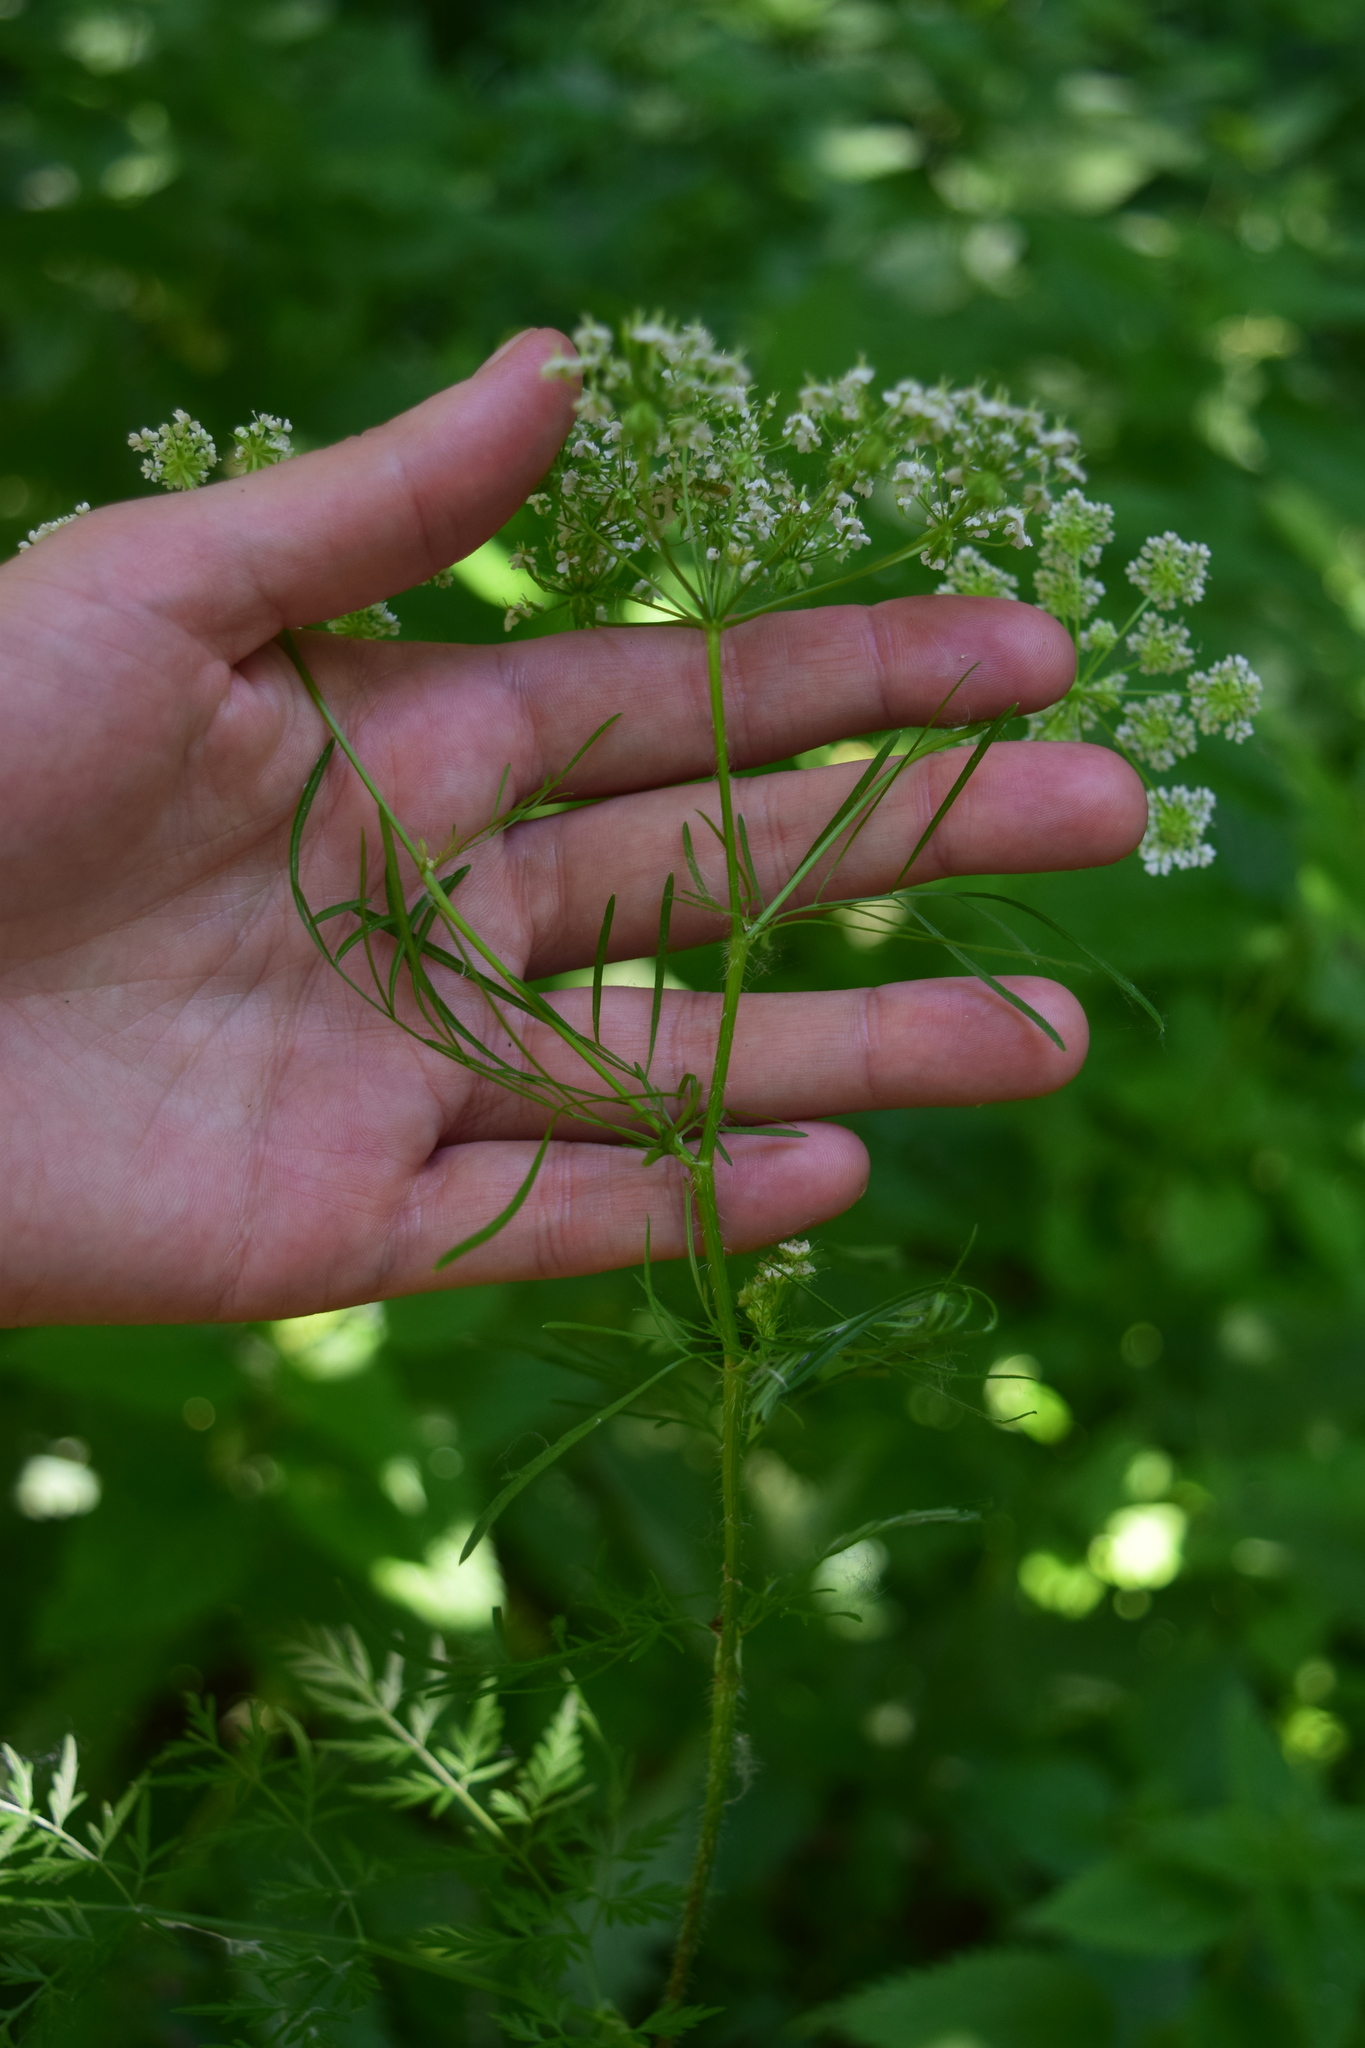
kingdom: Plantae
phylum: Tracheophyta
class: Magnoliopsida
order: Apiales
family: Apiaceae
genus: Chaerophyllum
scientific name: Chaerophyllum prescottii
